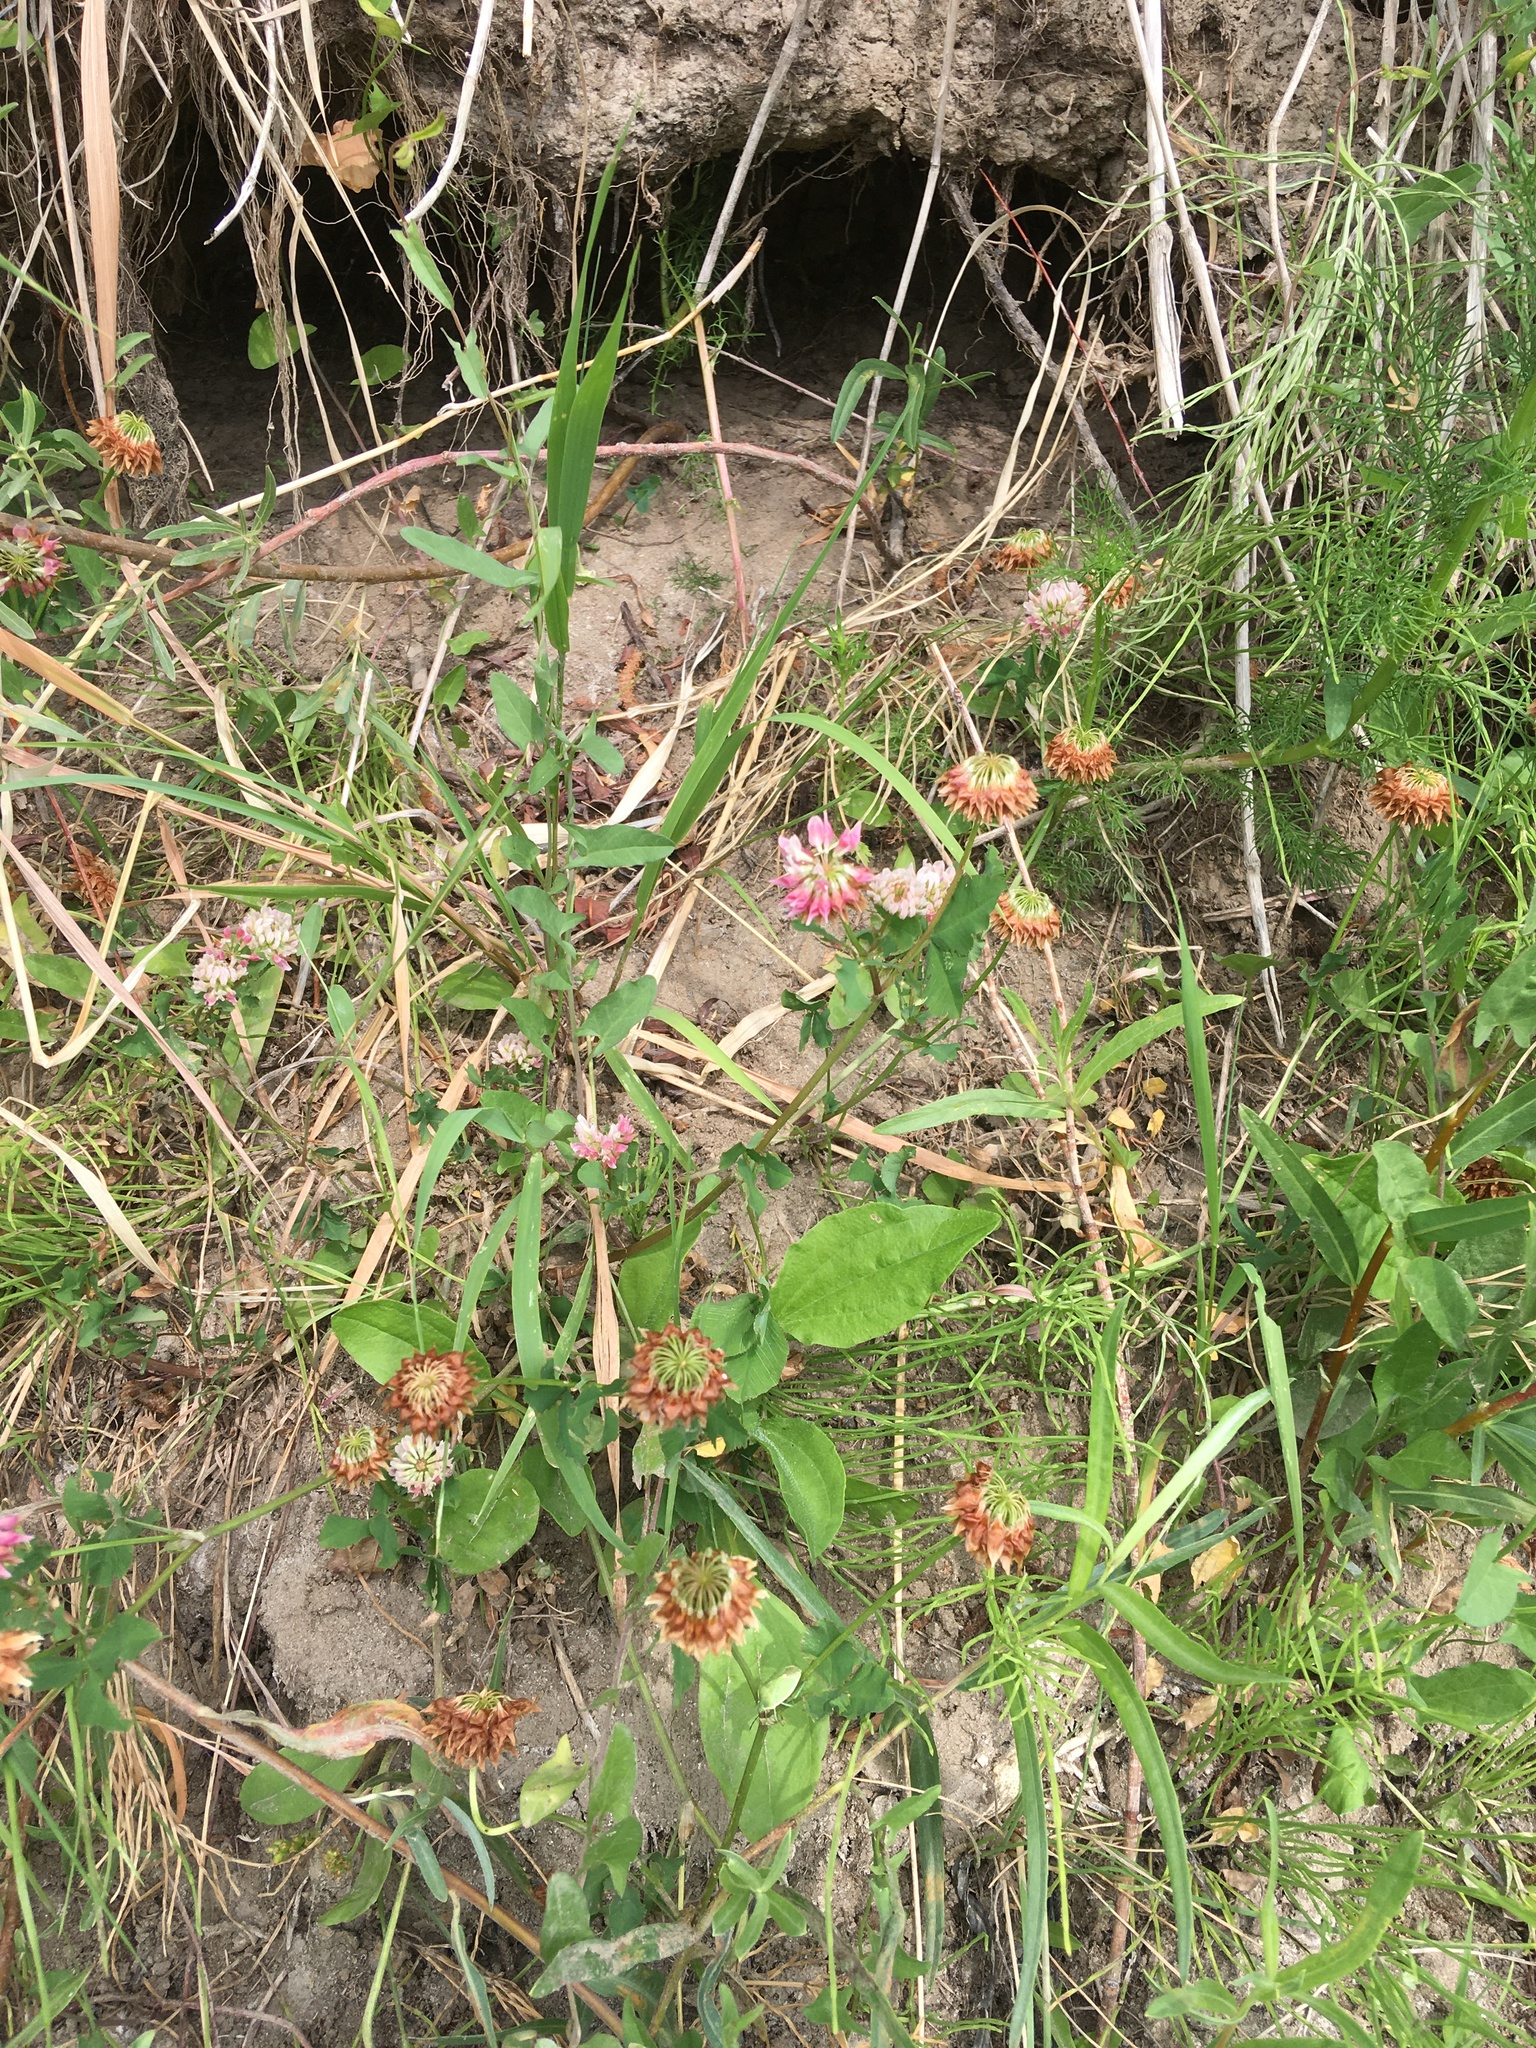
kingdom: Plantae
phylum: Tracheophyta
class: Magnoliopsida
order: Fabales
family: Fabaceae
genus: Trifolium
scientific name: Trifolium hybridum
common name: Alsike clover
